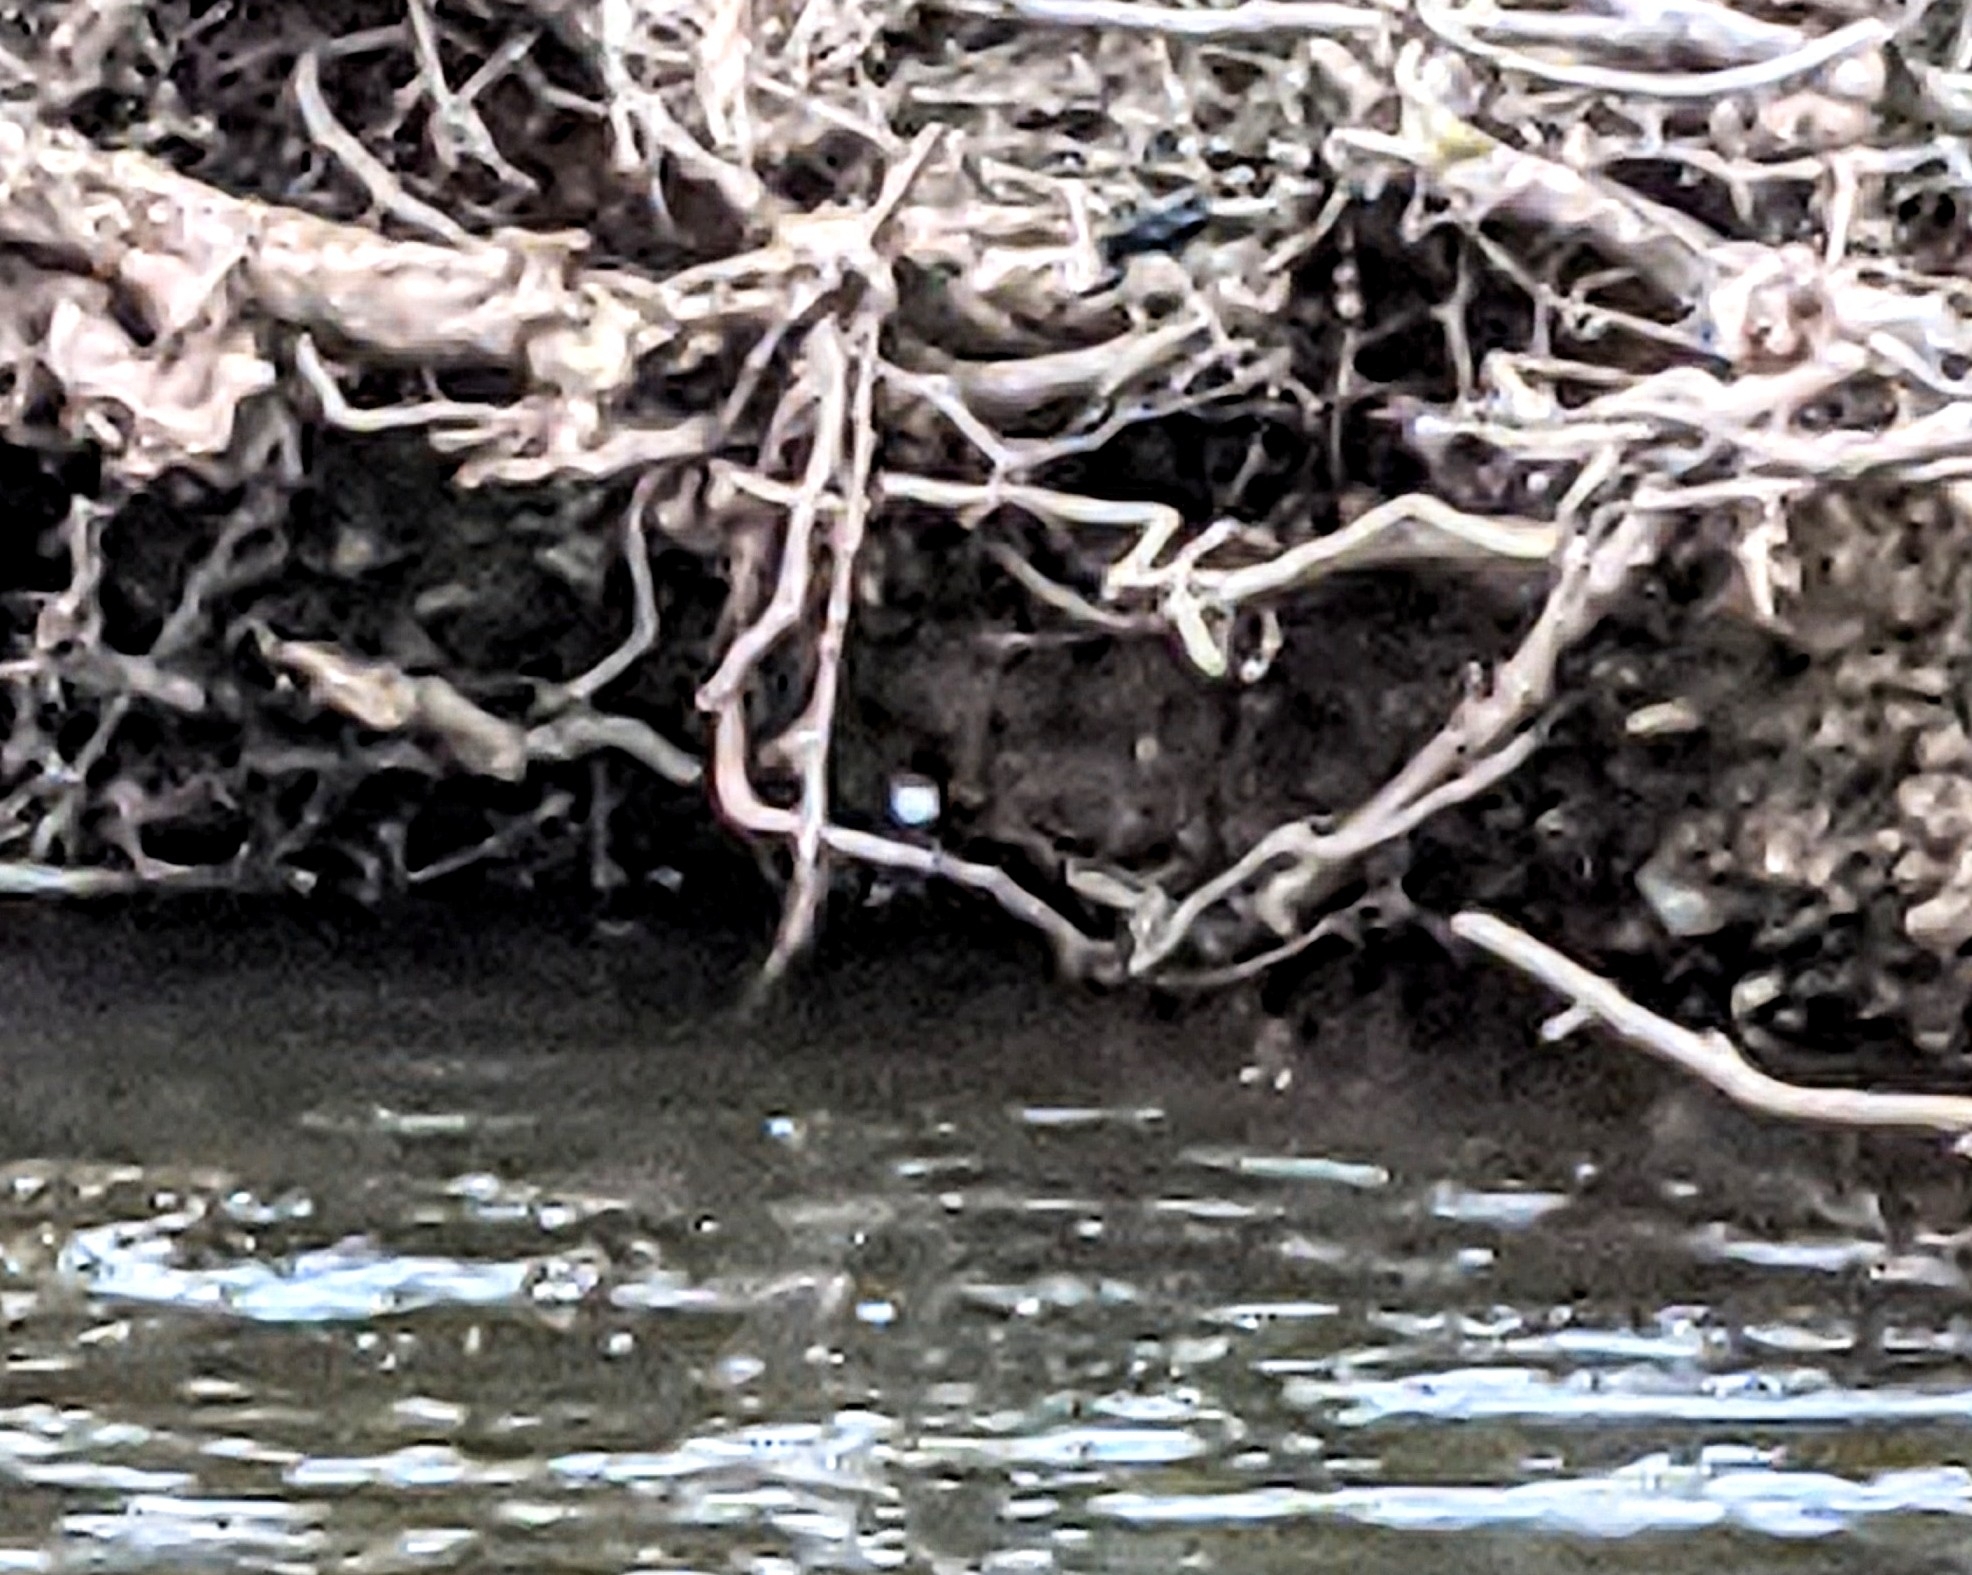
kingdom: Animalia
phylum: Chordata
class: Aves
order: Passeriformes
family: Cinclidae
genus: Cinclus
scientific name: Cinclus cinclus
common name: White-throated dipper
